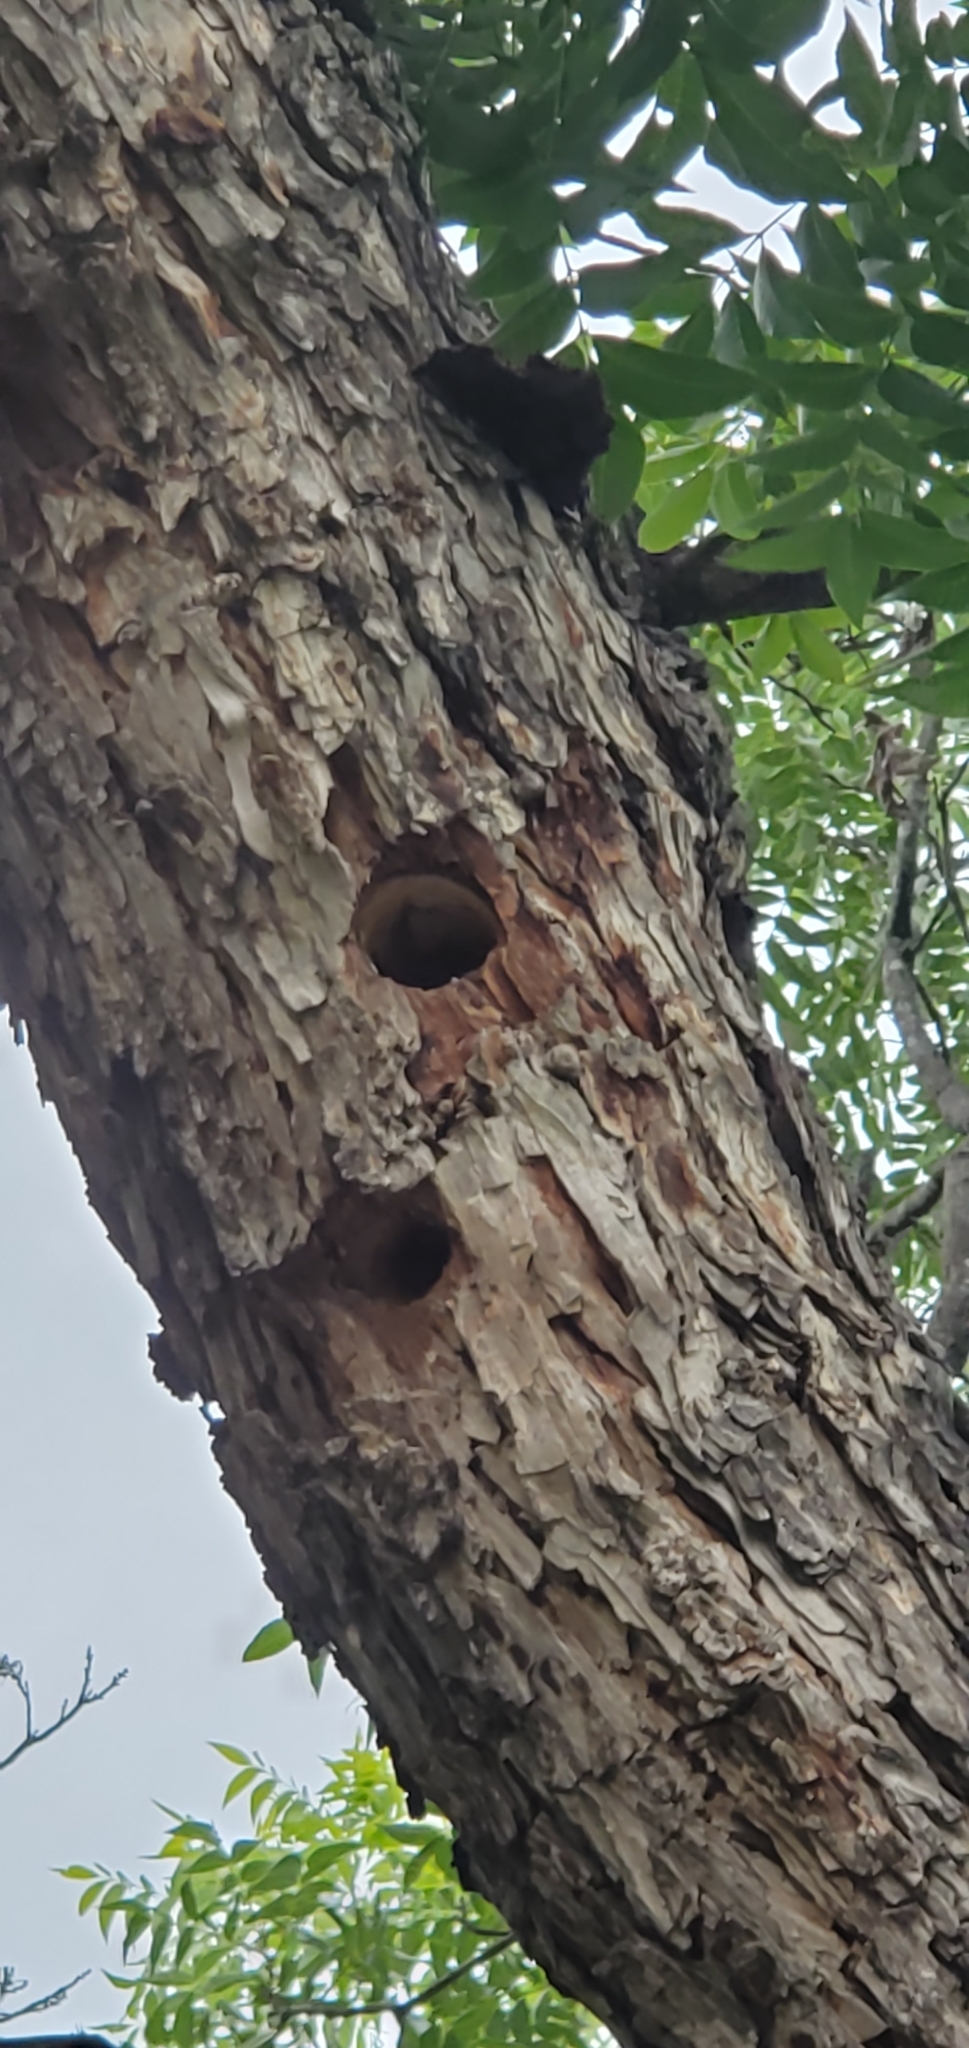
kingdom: Animalia
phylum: Chordata
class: Squamata
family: Colubridae
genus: Pantherophis
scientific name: Pantherophis obsoletus
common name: Black rat snake
